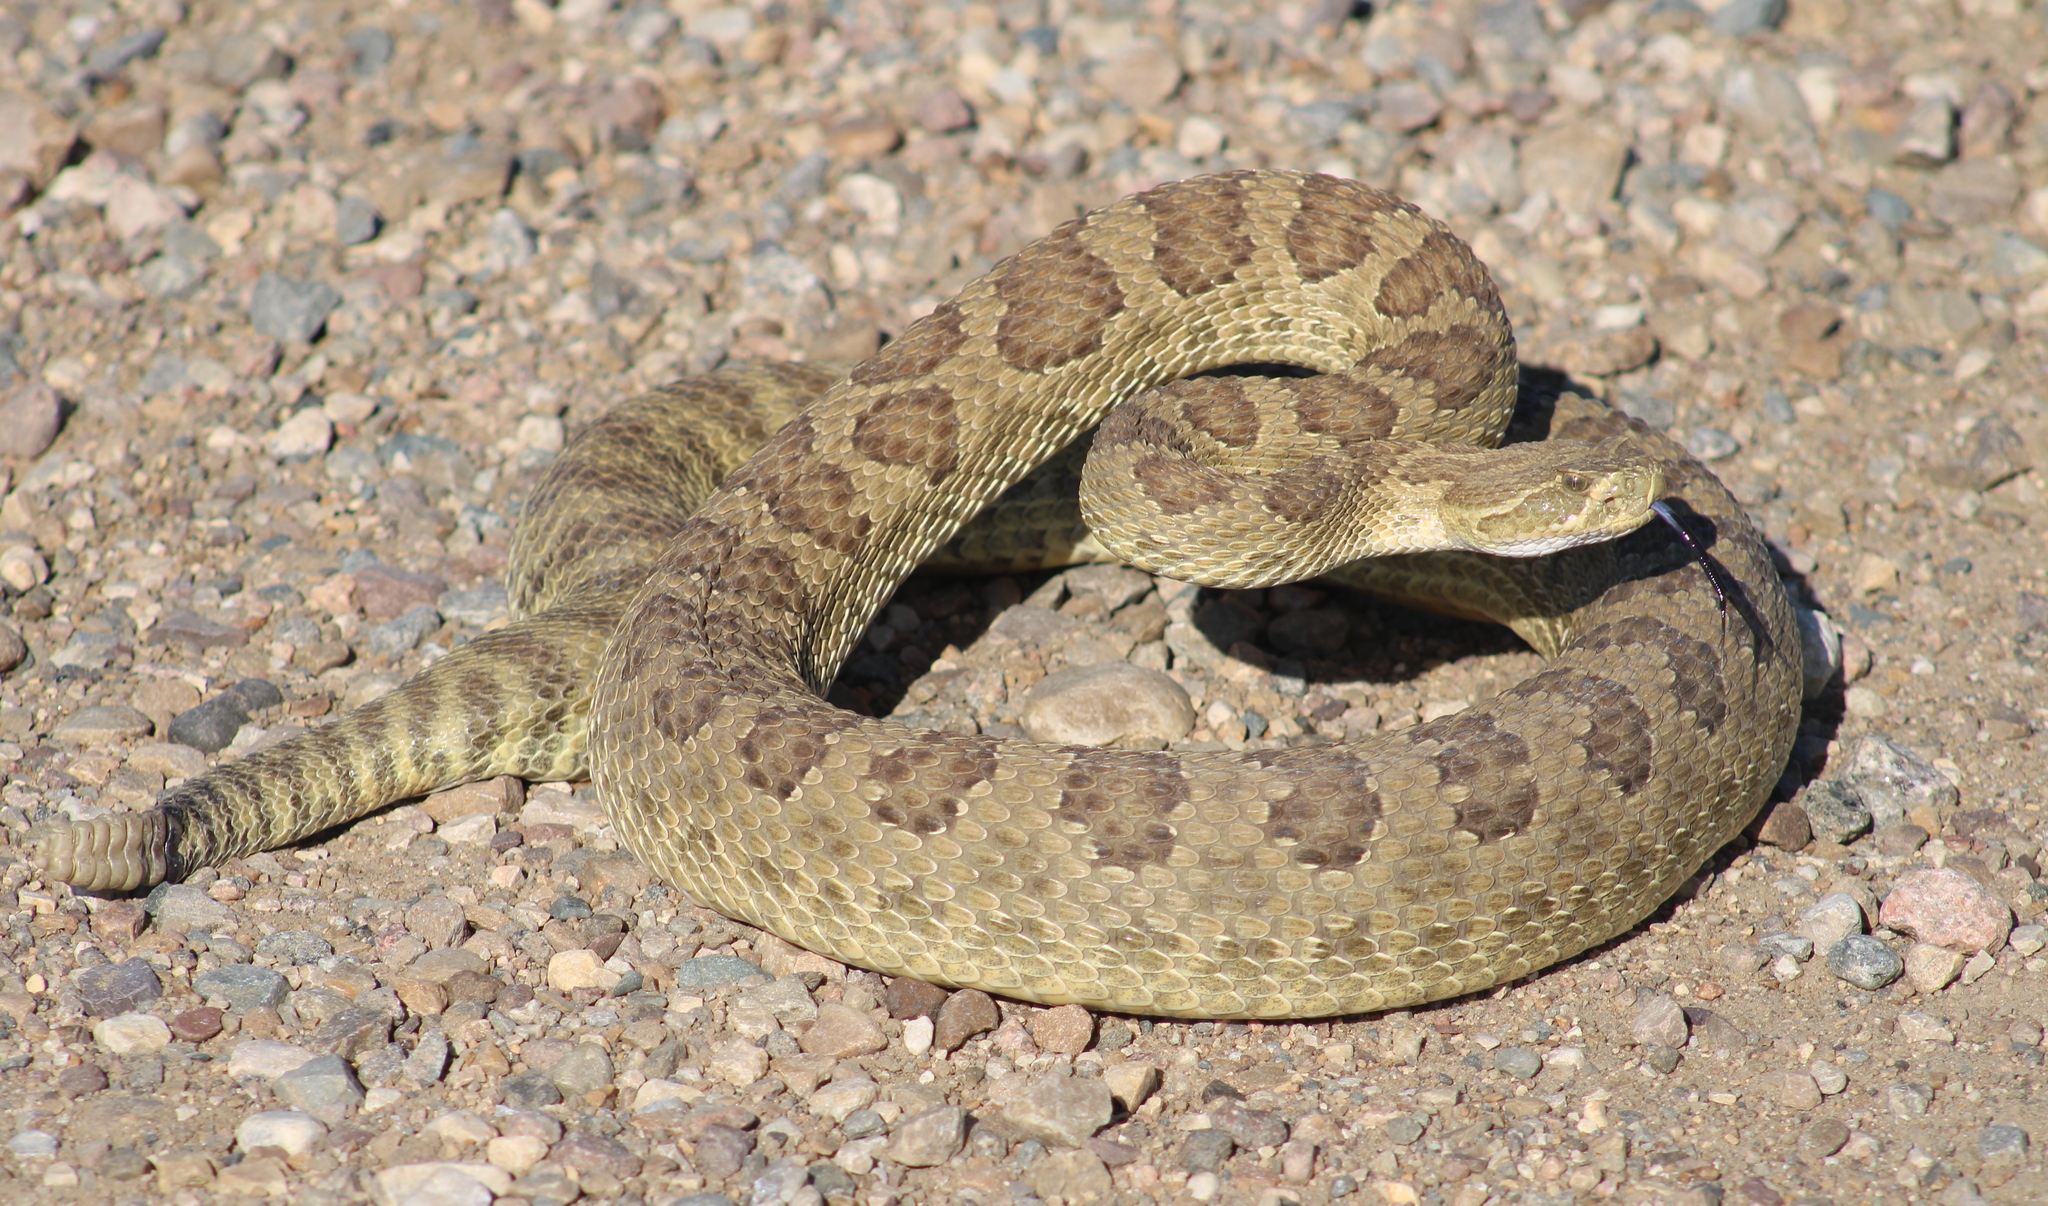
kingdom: Animalia
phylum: Chordata
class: Squamata
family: Viperidae
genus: Crotalus
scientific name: Crotalus viridis
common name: Prairie rattlesnake
